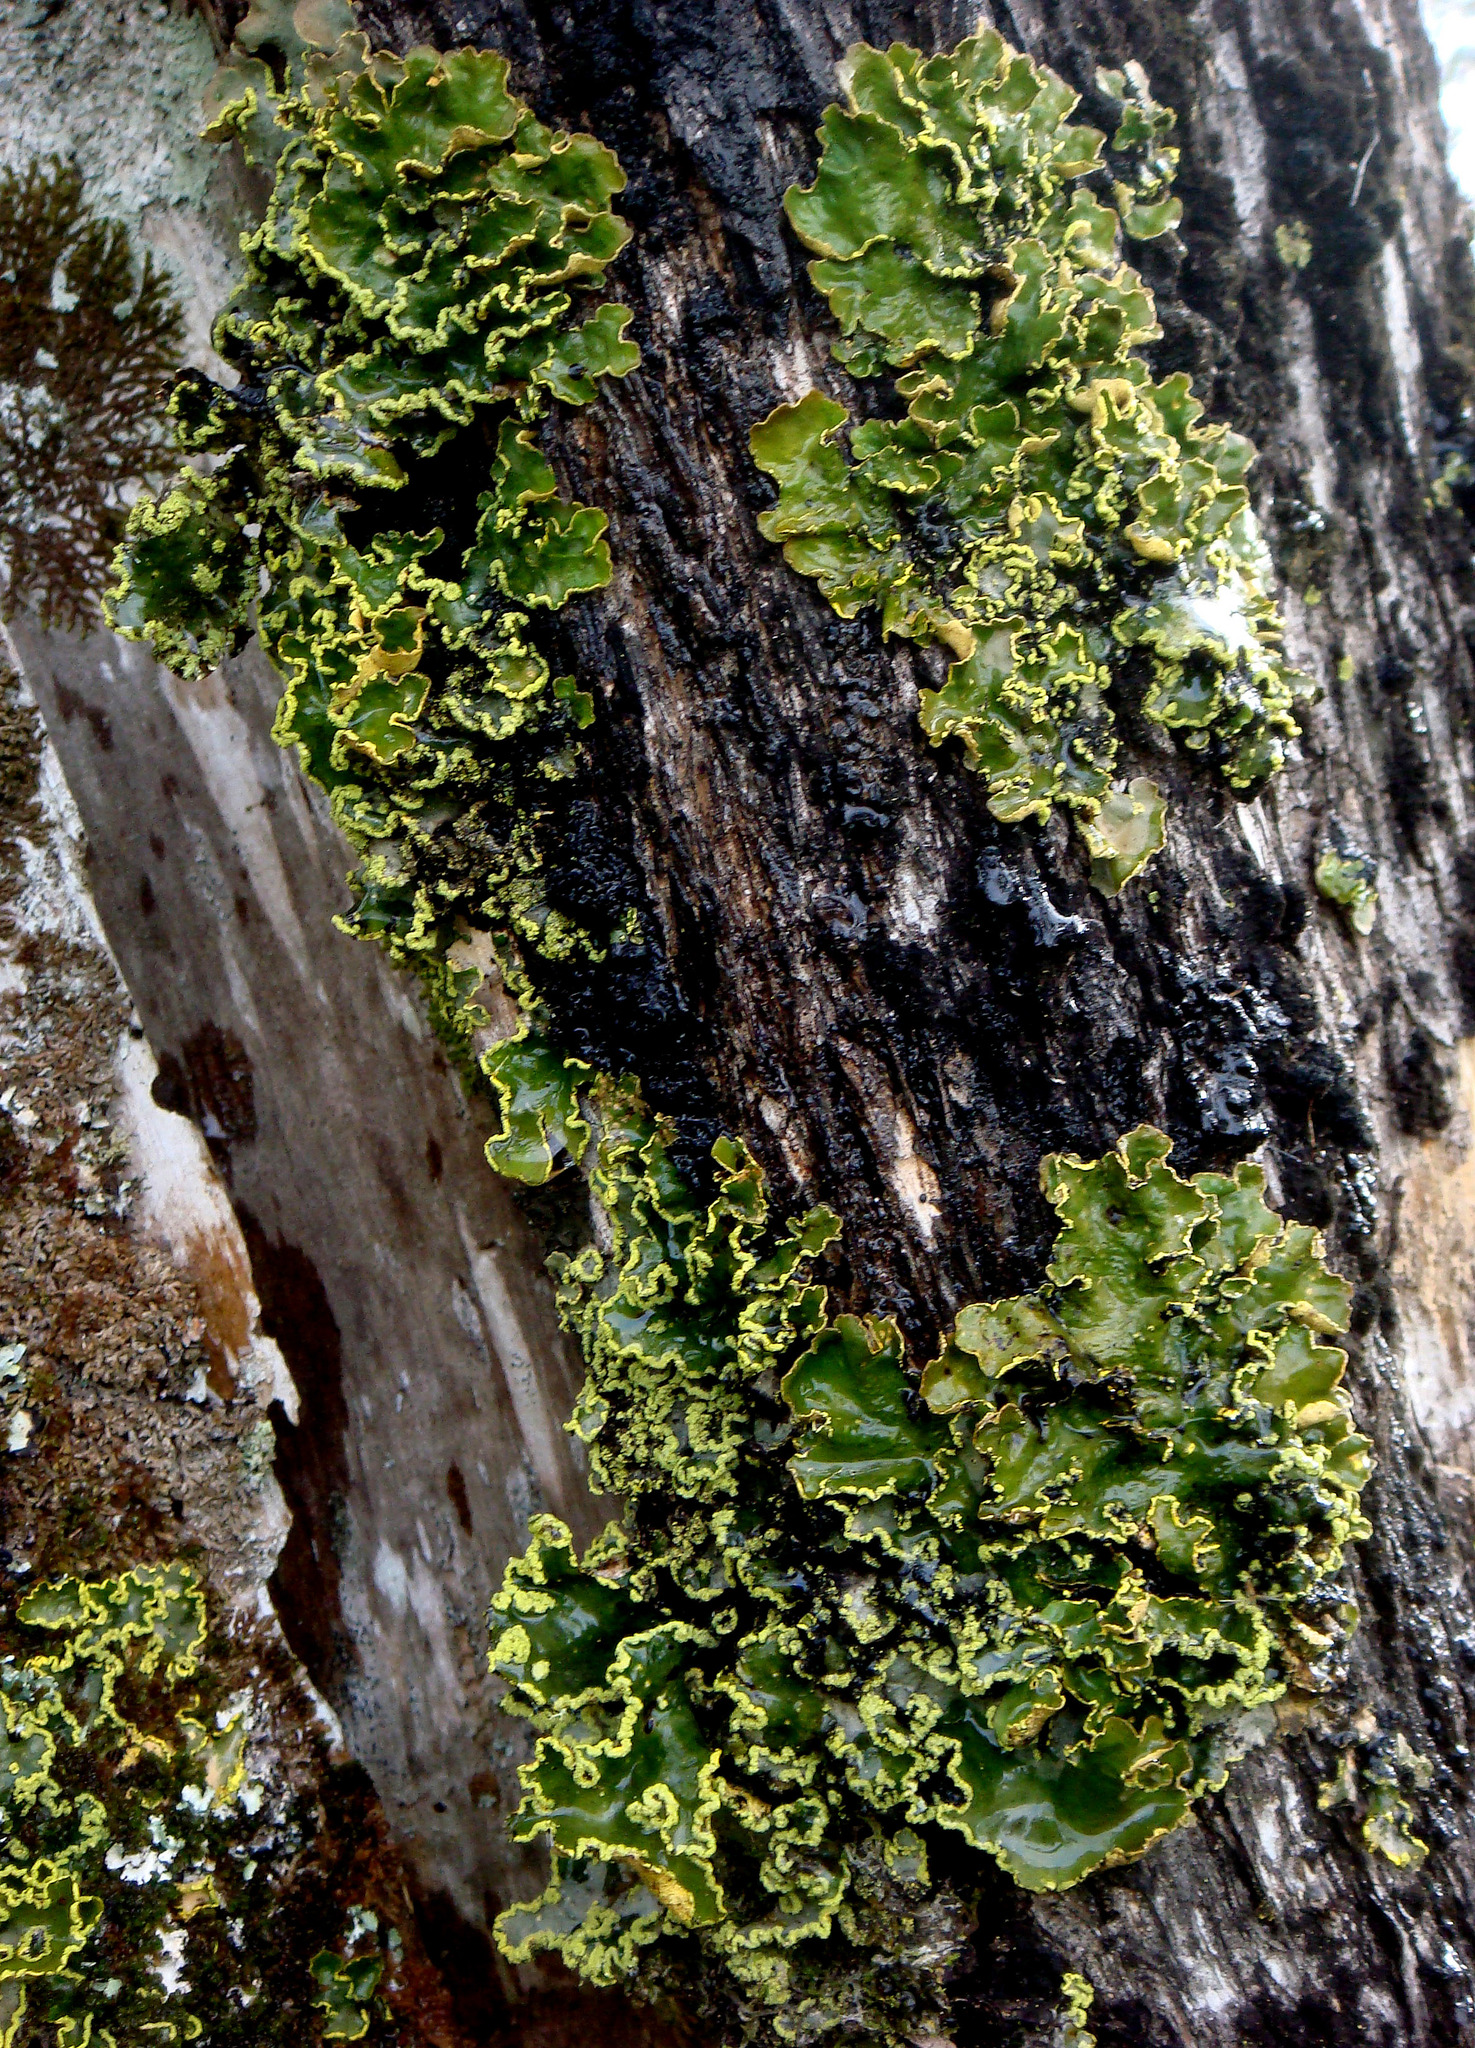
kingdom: Fungi
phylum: Ascomycota
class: Lecanoromycetes
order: Peltigerales
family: Lobariaceae
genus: Pseudocyphellaria
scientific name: Pseudocyphellaria rubella
